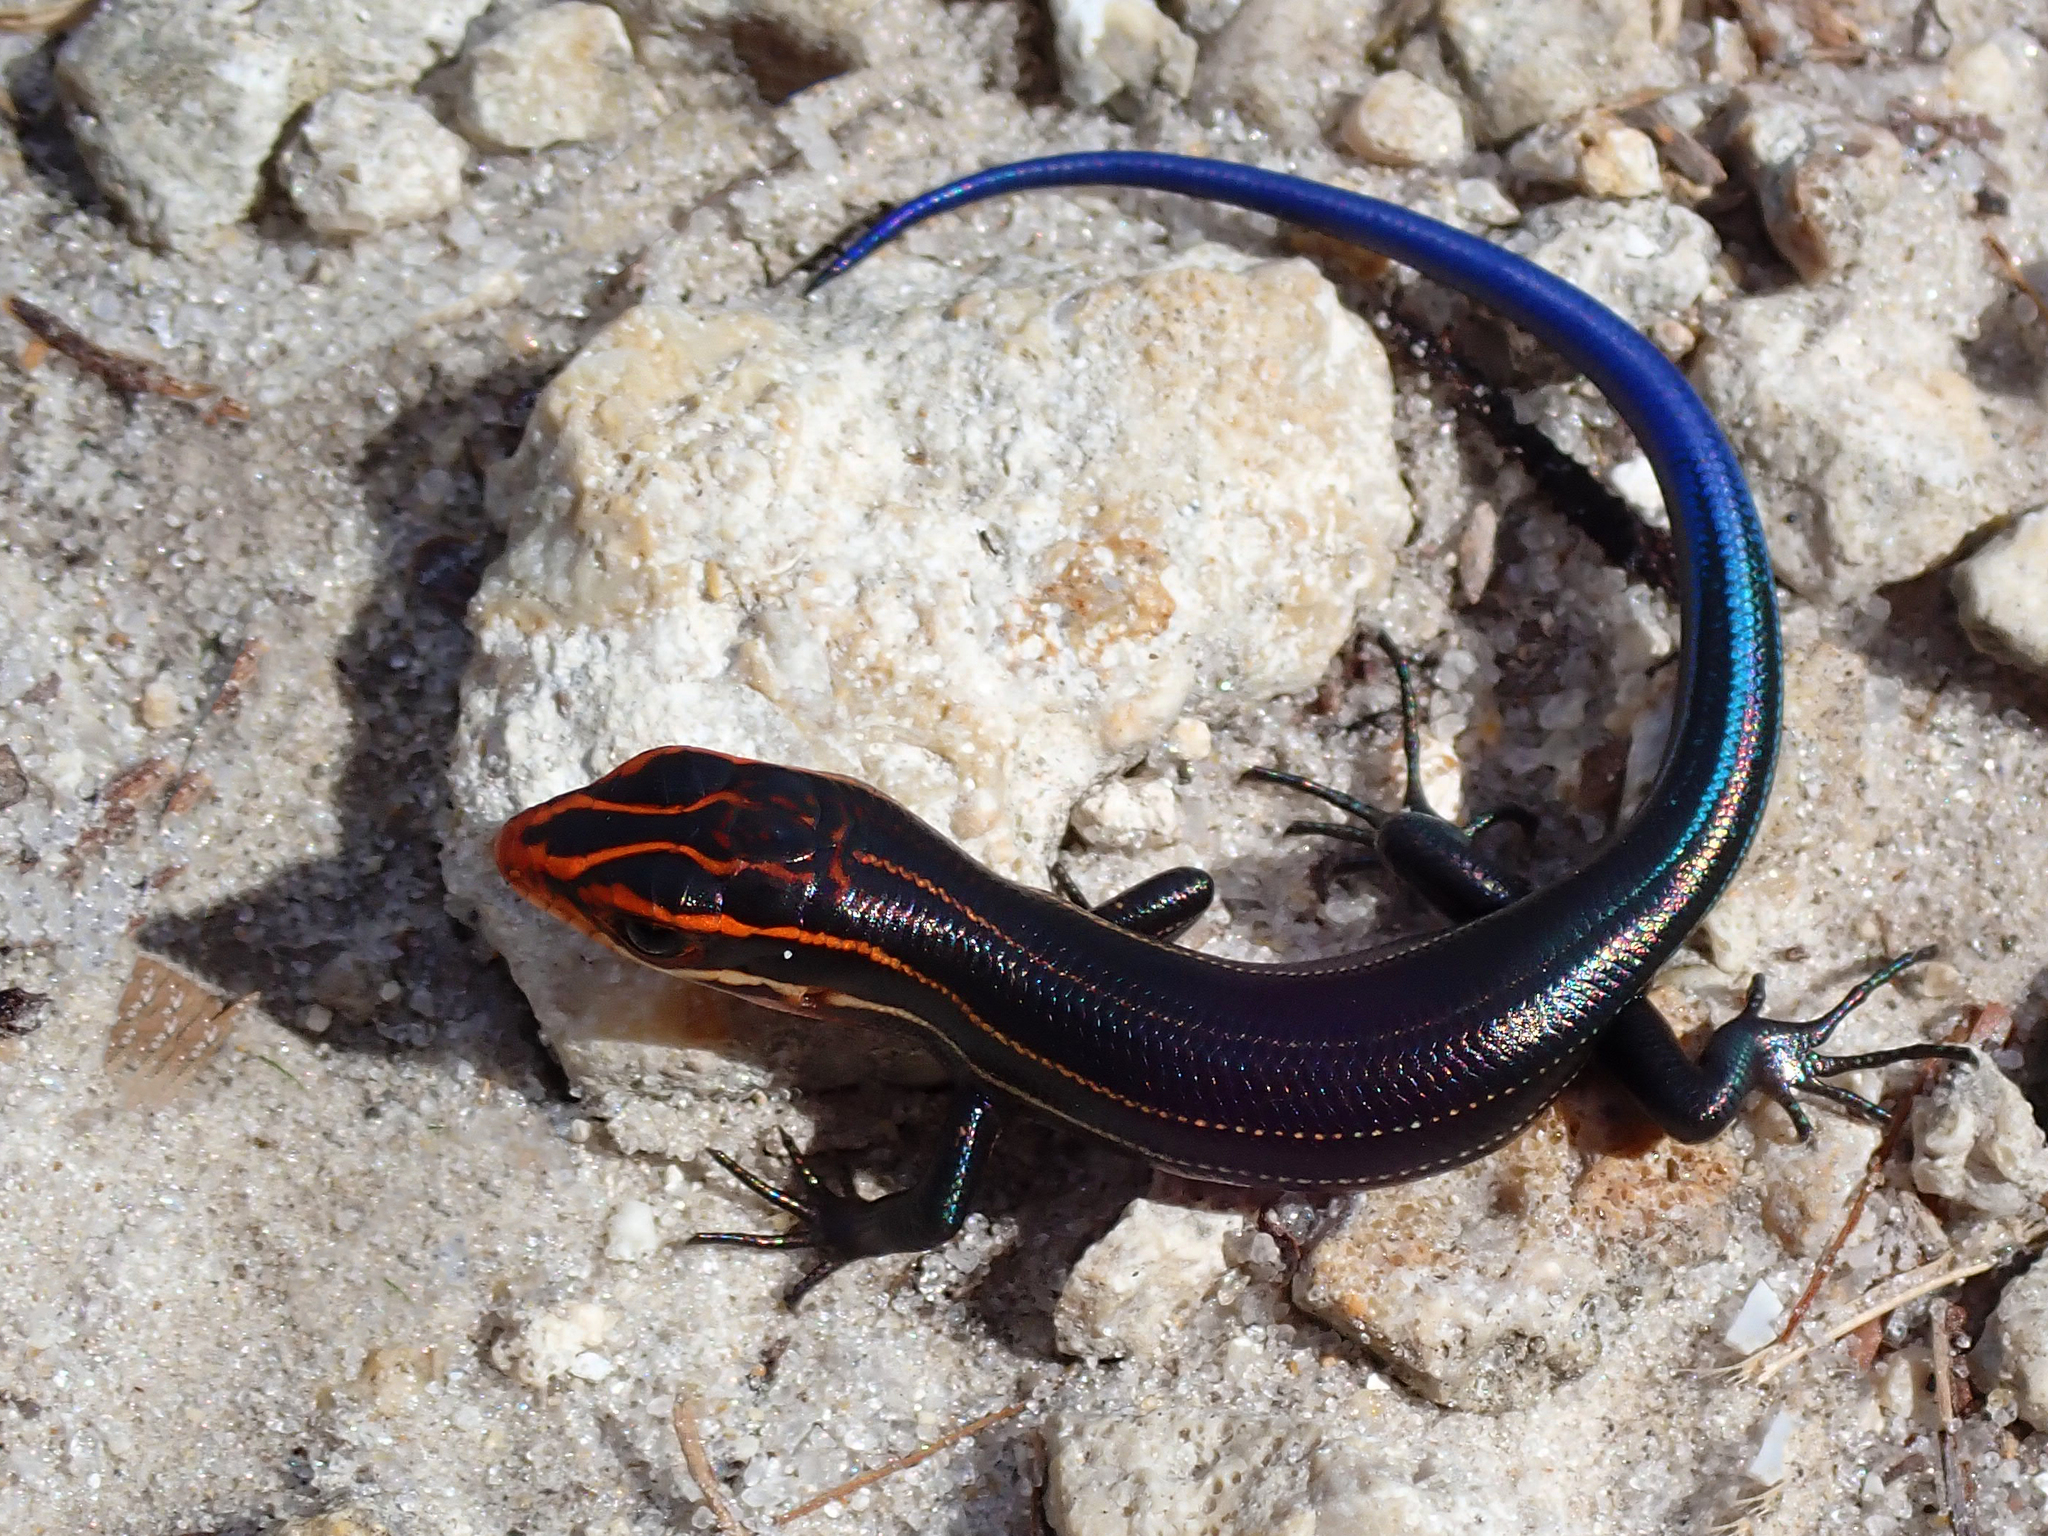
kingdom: Animalia
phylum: Chordata
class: Squamata
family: Scincidae
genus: Plestiodon
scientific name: Plestiodon inexpectatus
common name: Southeastern five-lined skink
